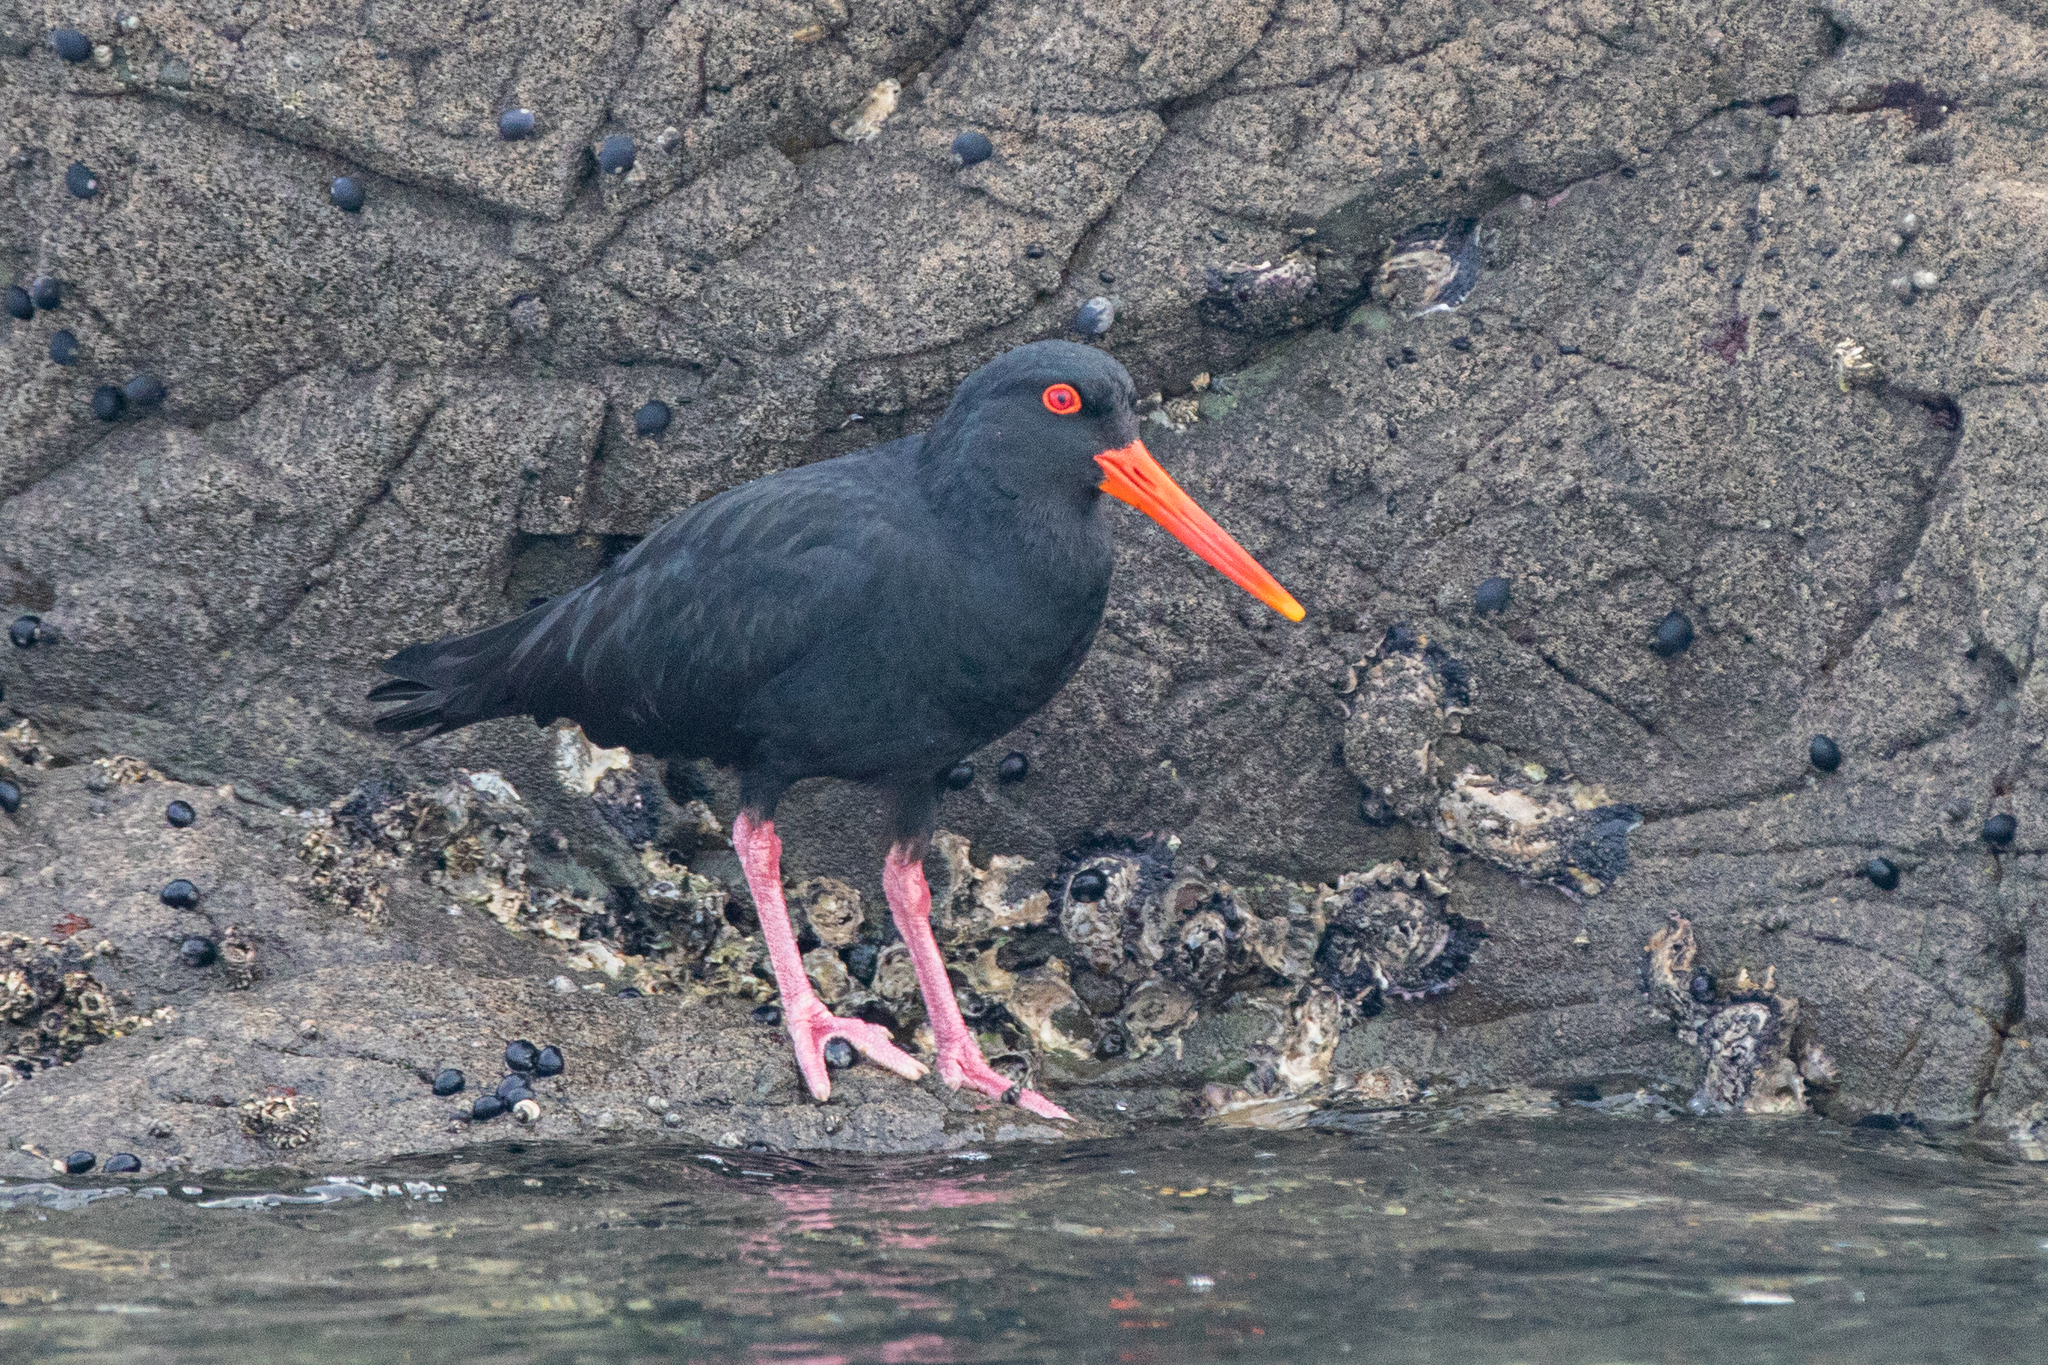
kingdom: Animalia
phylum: Chordata
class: Aves
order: Charadriiformes
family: Haematopodidae
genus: Haematopus
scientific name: Haematopus unicolor
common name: Variable oystercatcher
